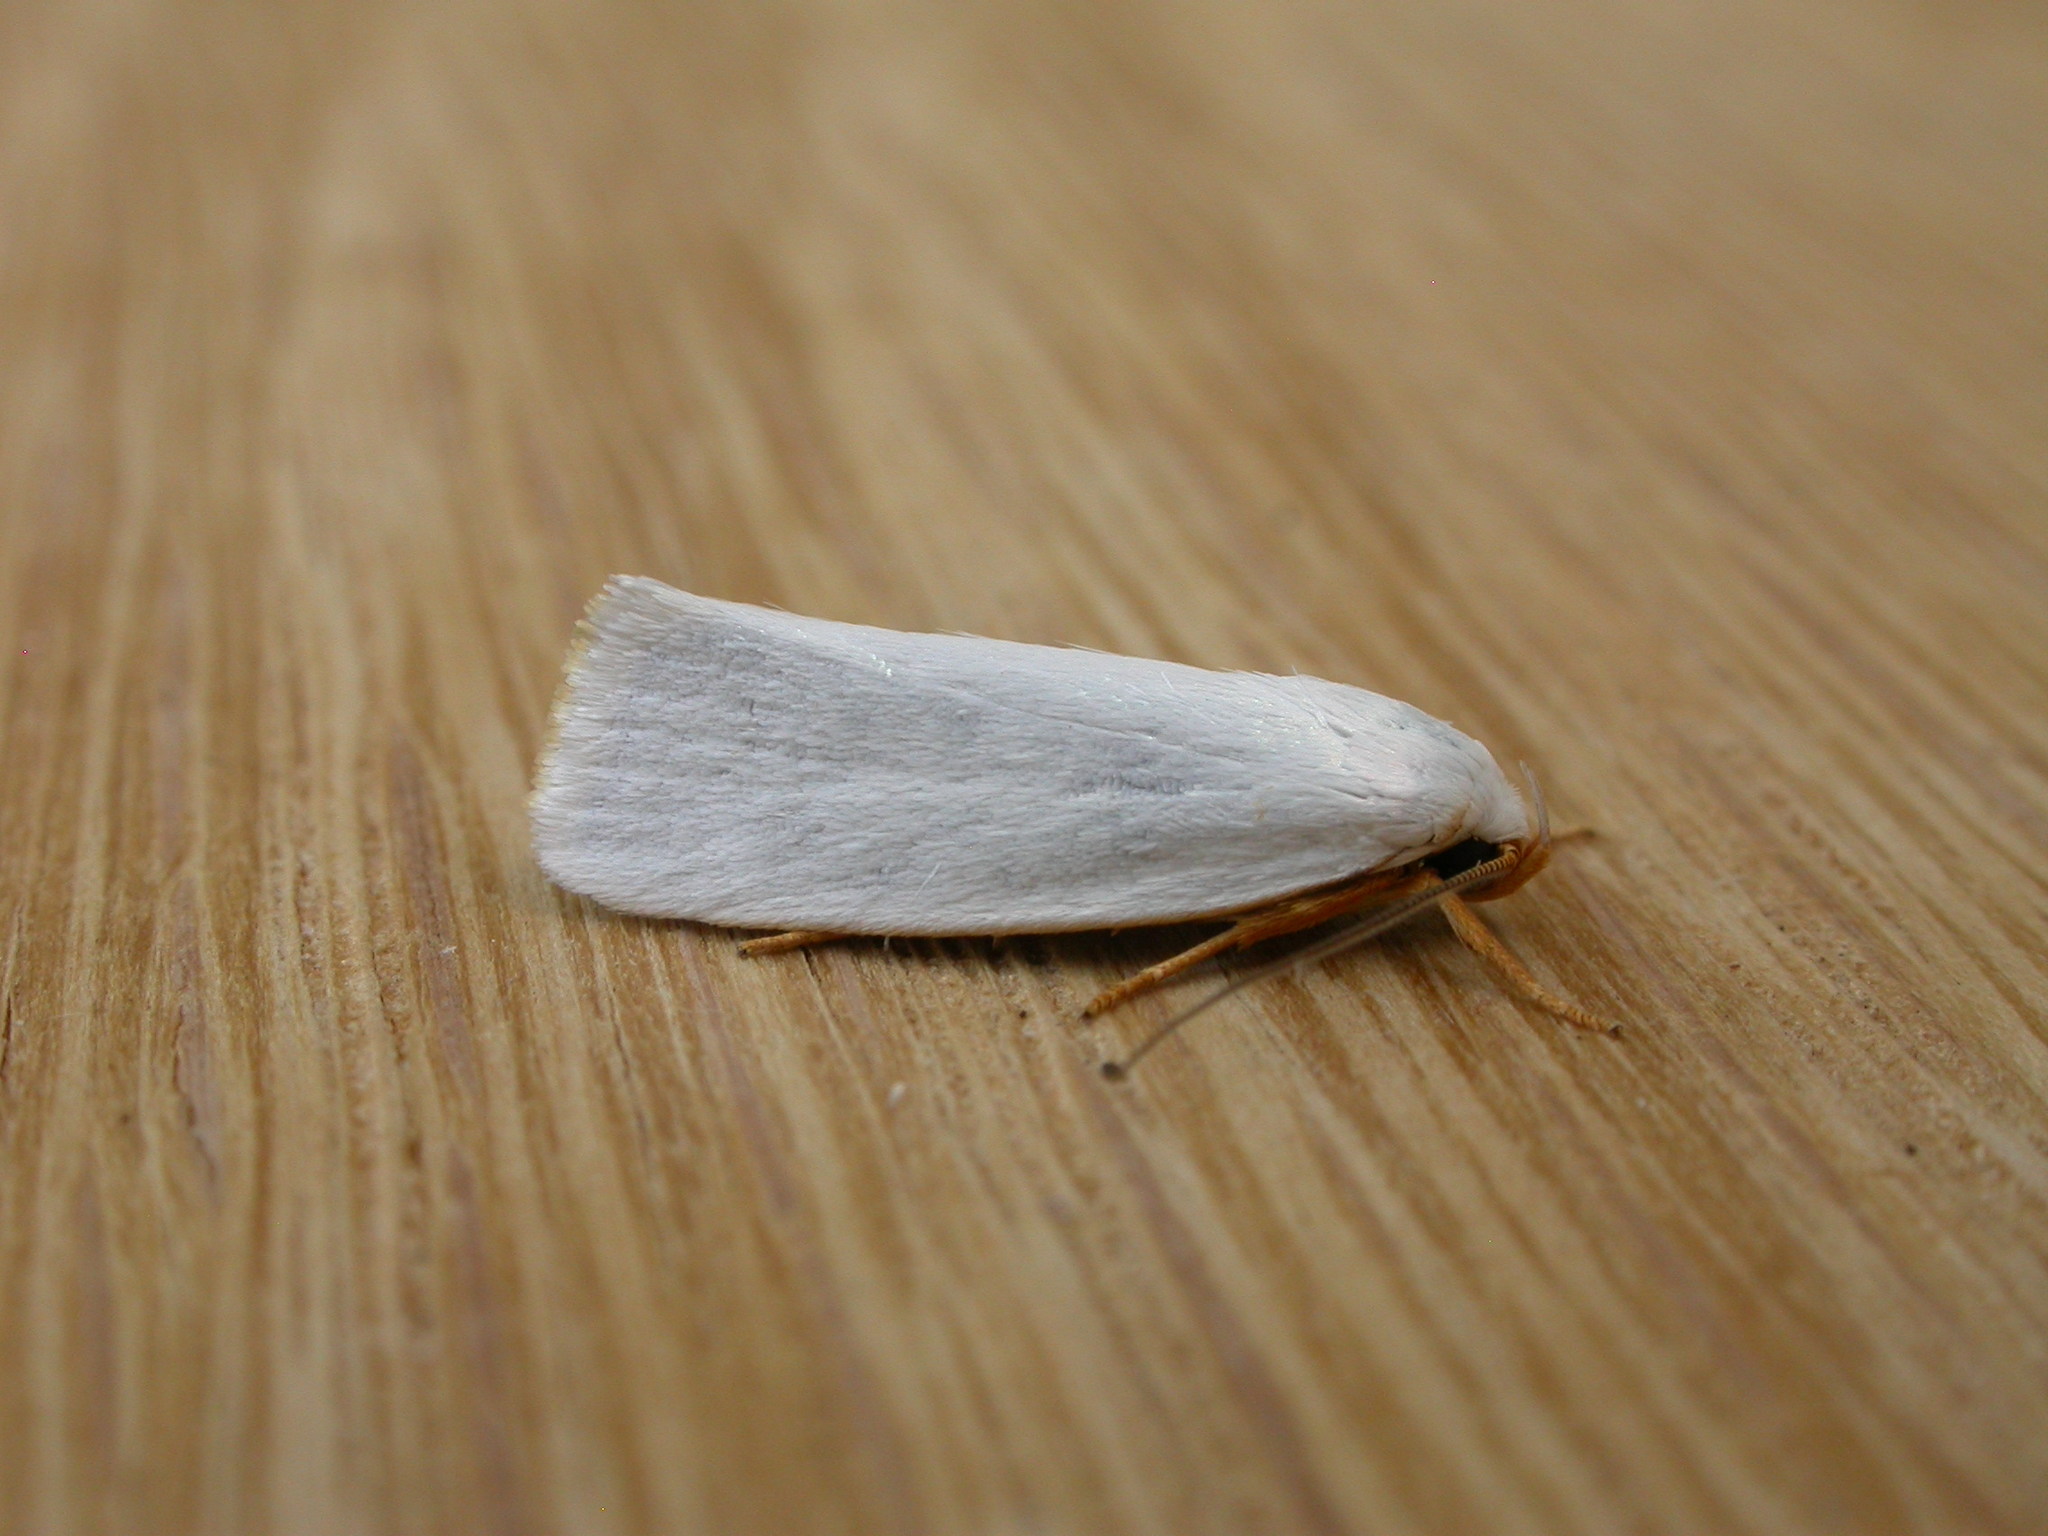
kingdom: Animalia
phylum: Arthropoda
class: Insecta
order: Lepidoptera
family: Xyloryctidae
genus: Xylorycta
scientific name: Xylorycta luteotactella
